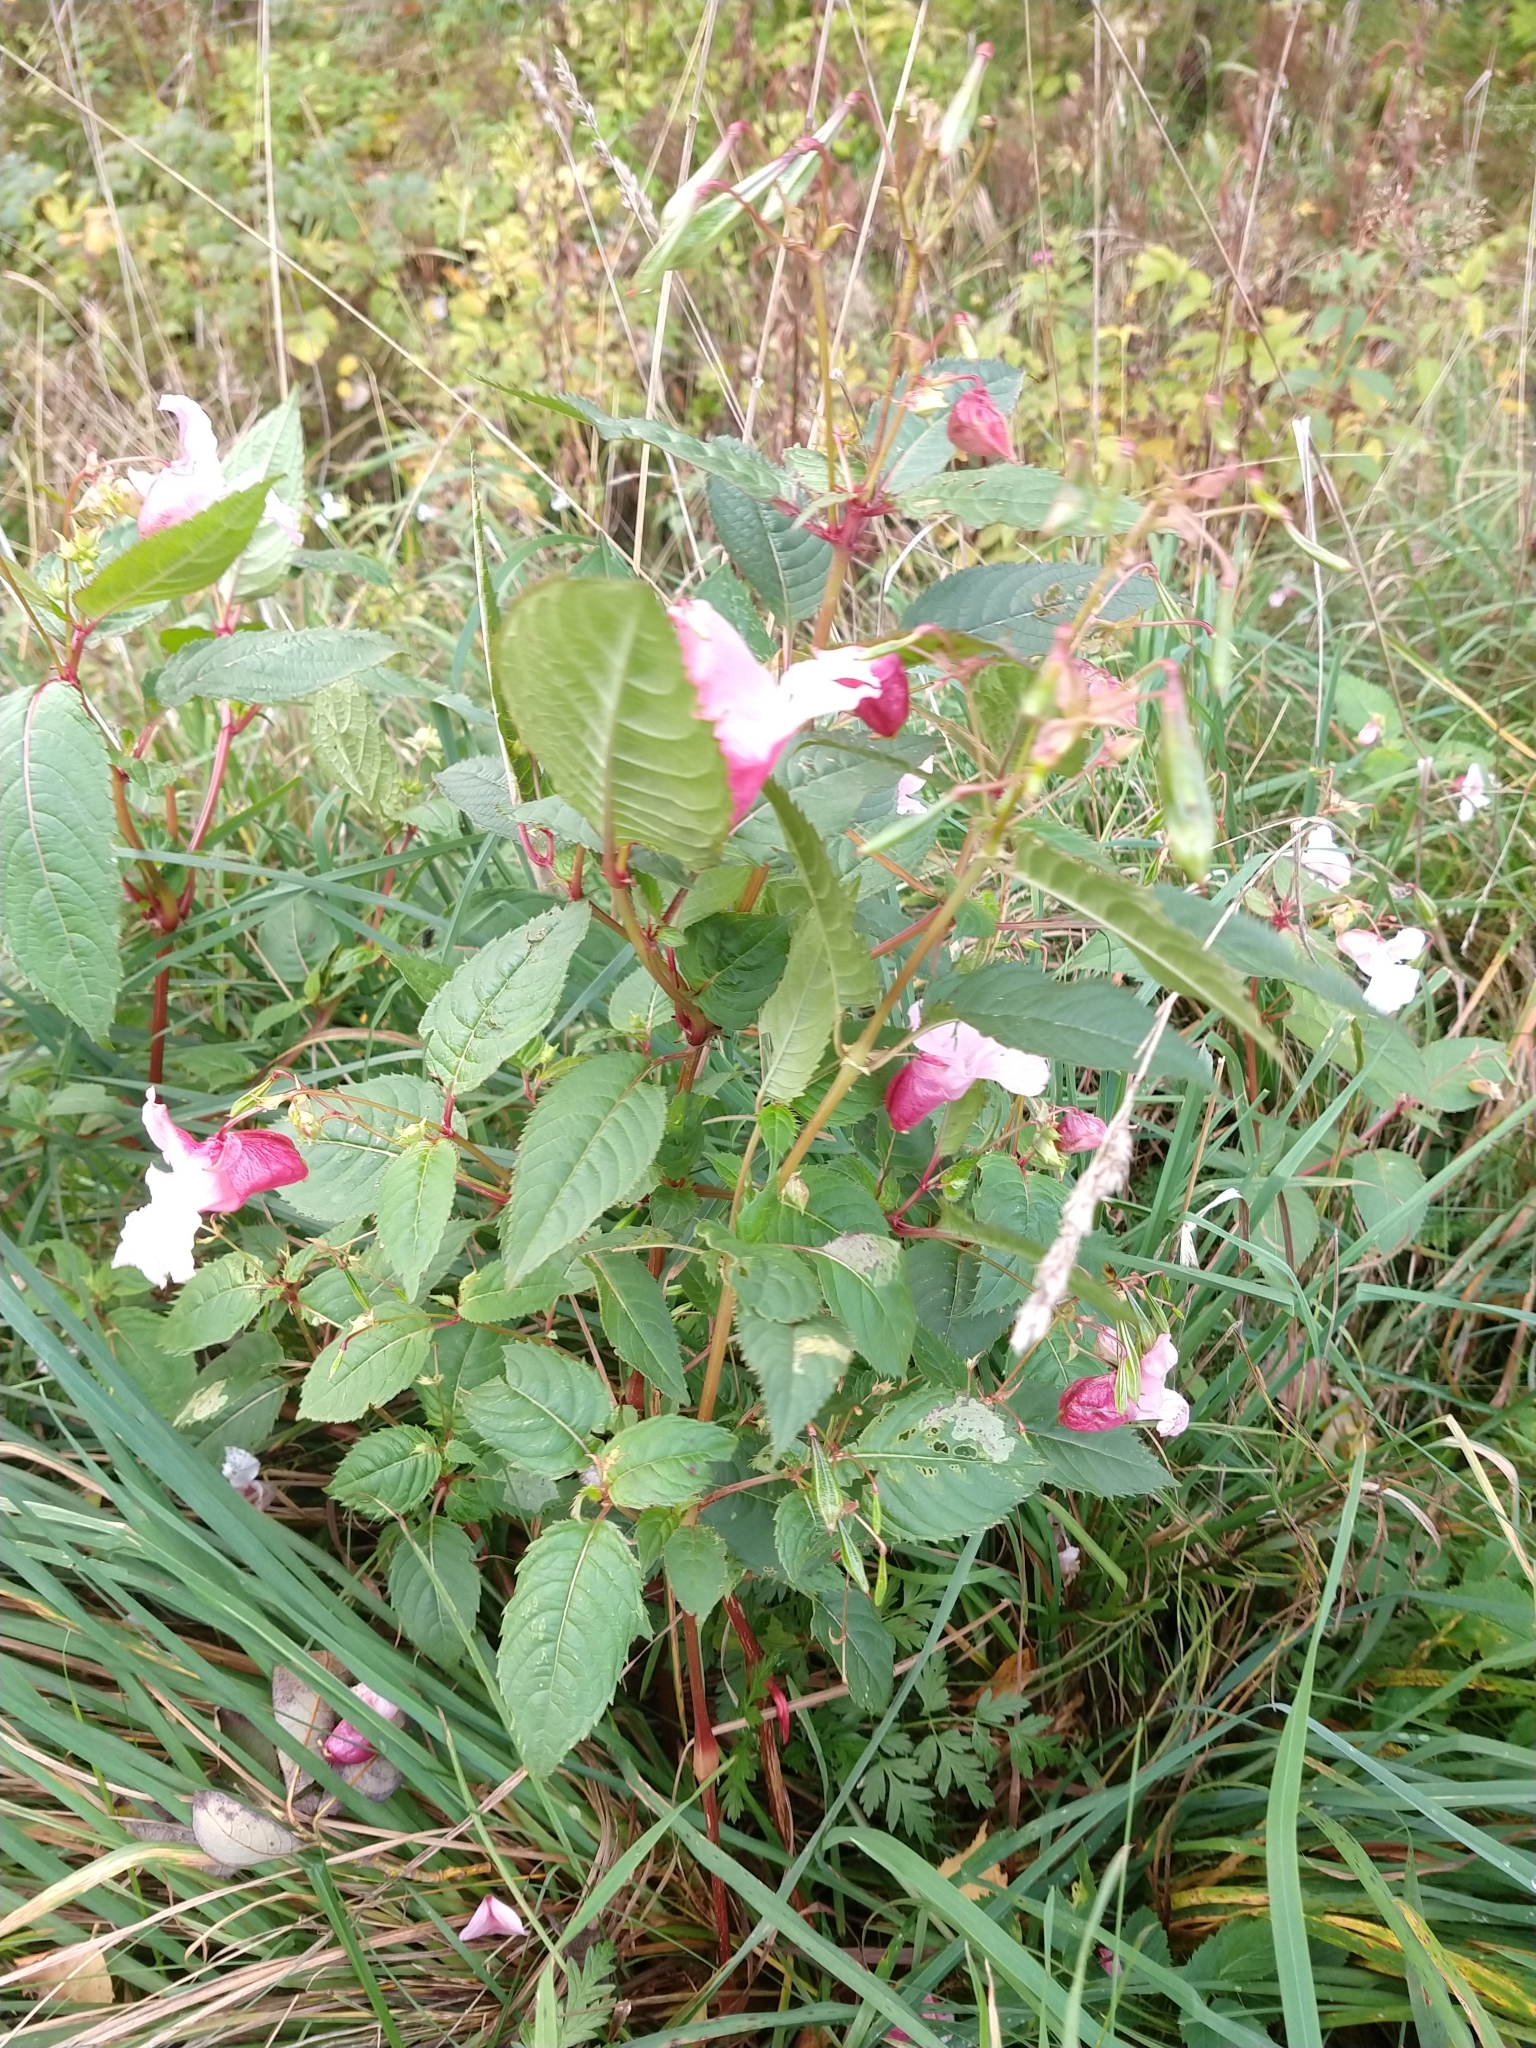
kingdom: Plantae
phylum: Tracheophyta
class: Magnoliopsida
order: Ericales
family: Balsaminaceae
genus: Impatiens
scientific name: Impatiens glandulifera
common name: Himalayan balsam
